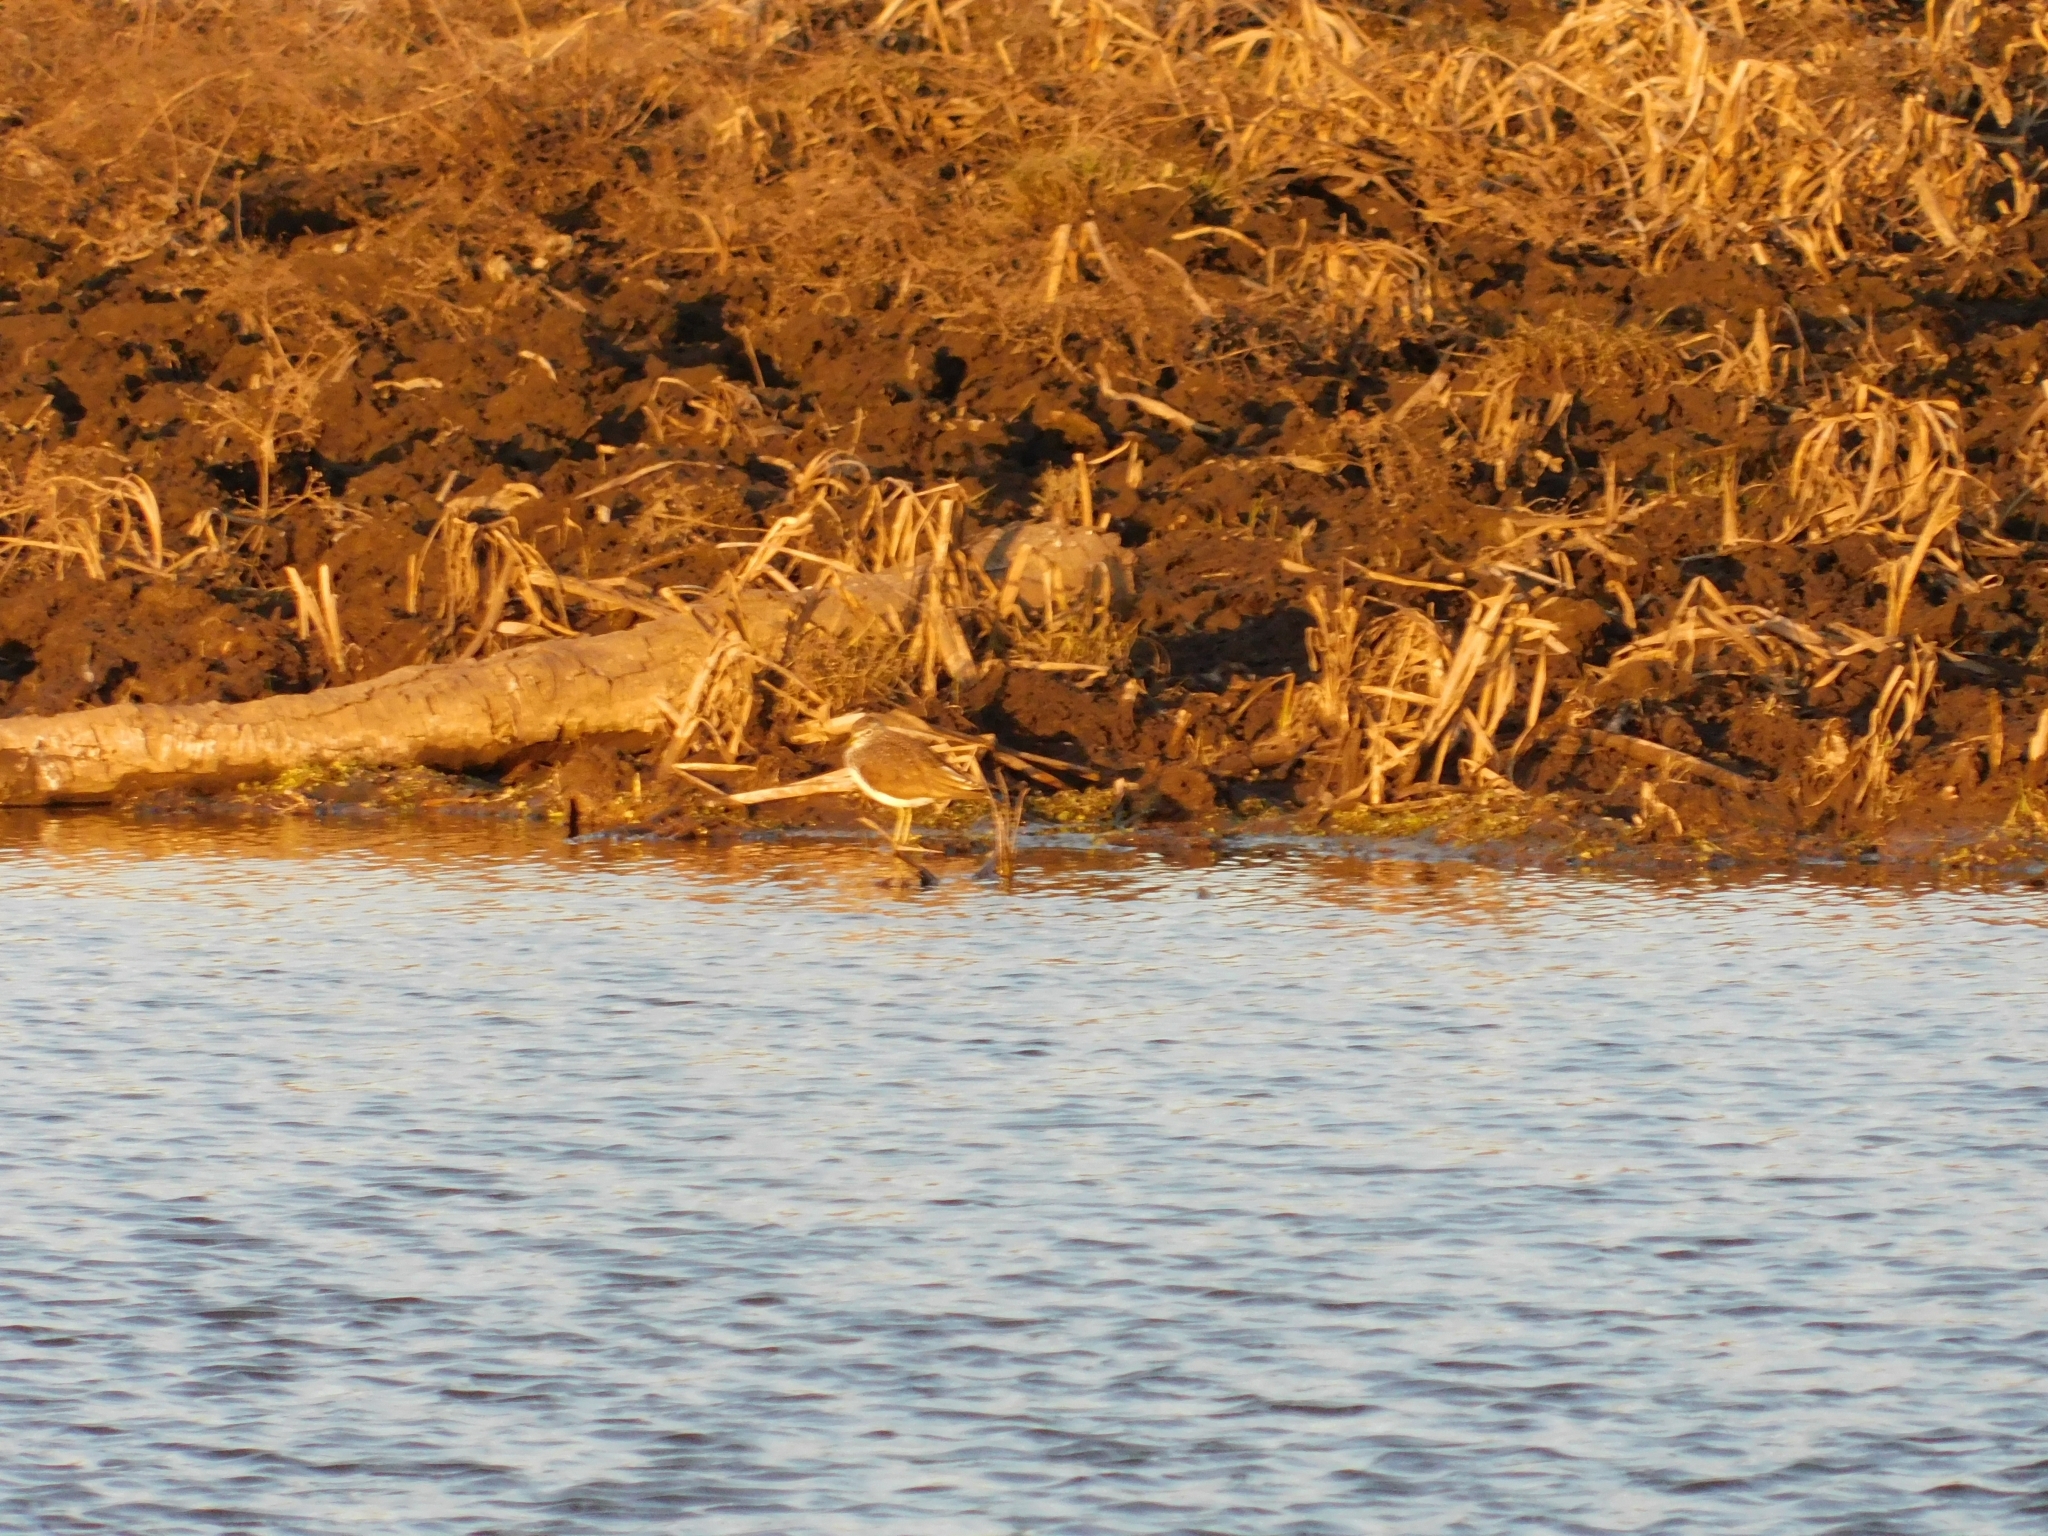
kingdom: Animalia
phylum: Chordata
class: Aves
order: Charadriiformes
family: Scolopacidae
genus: Tringa
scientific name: Tringa ochropus
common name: Green sandpiper
